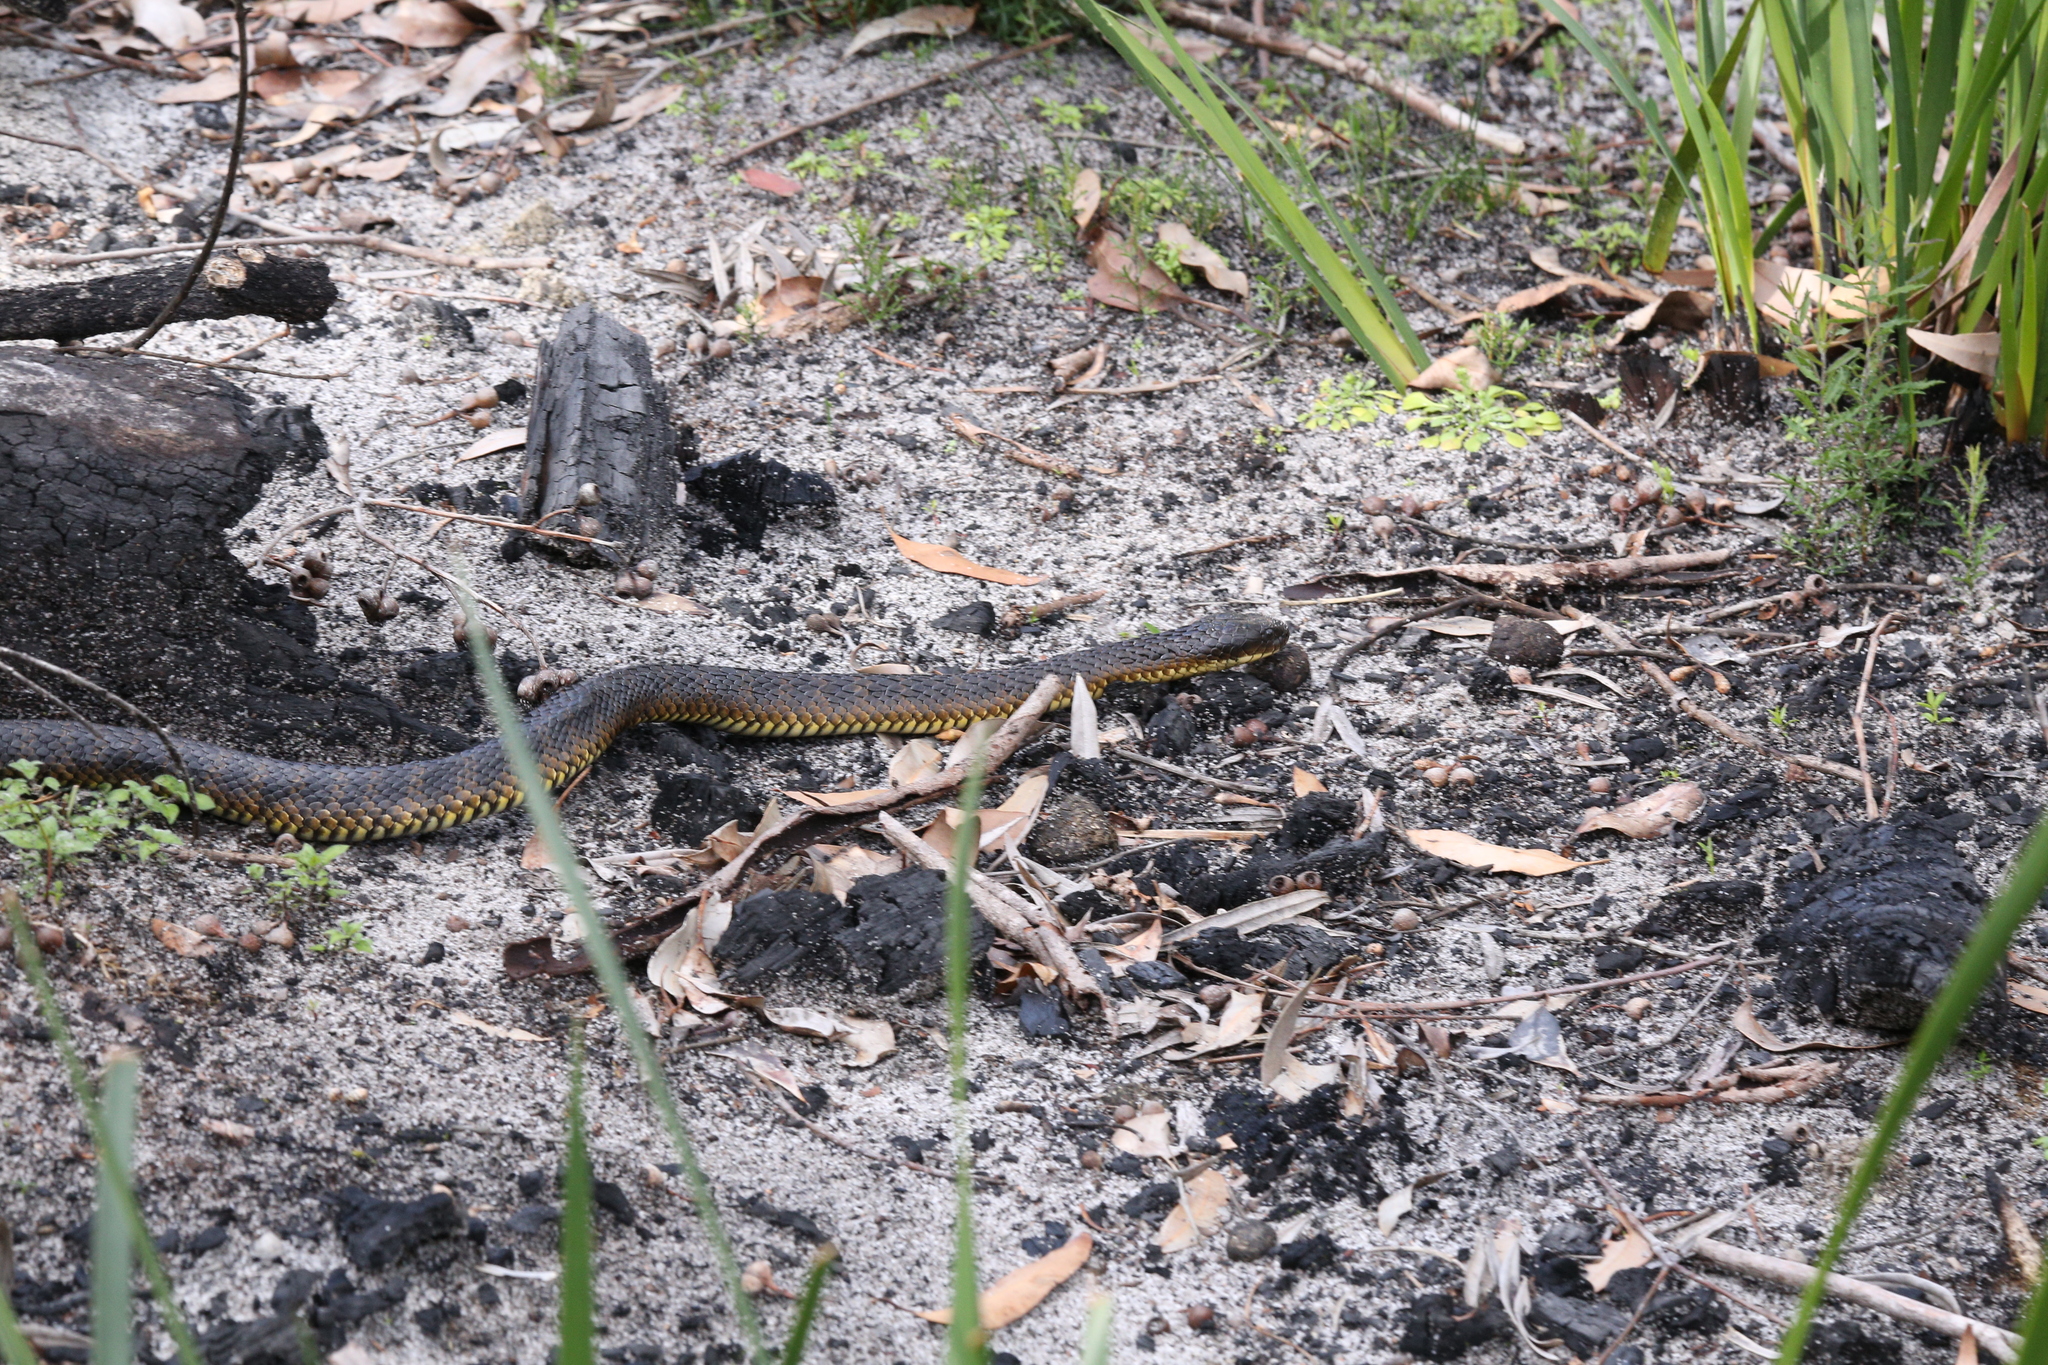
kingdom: Animalia
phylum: Chordata
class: Squamata
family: Elapidae
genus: Notechis
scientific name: Notechis scutatus
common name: Mainland tiger snake
